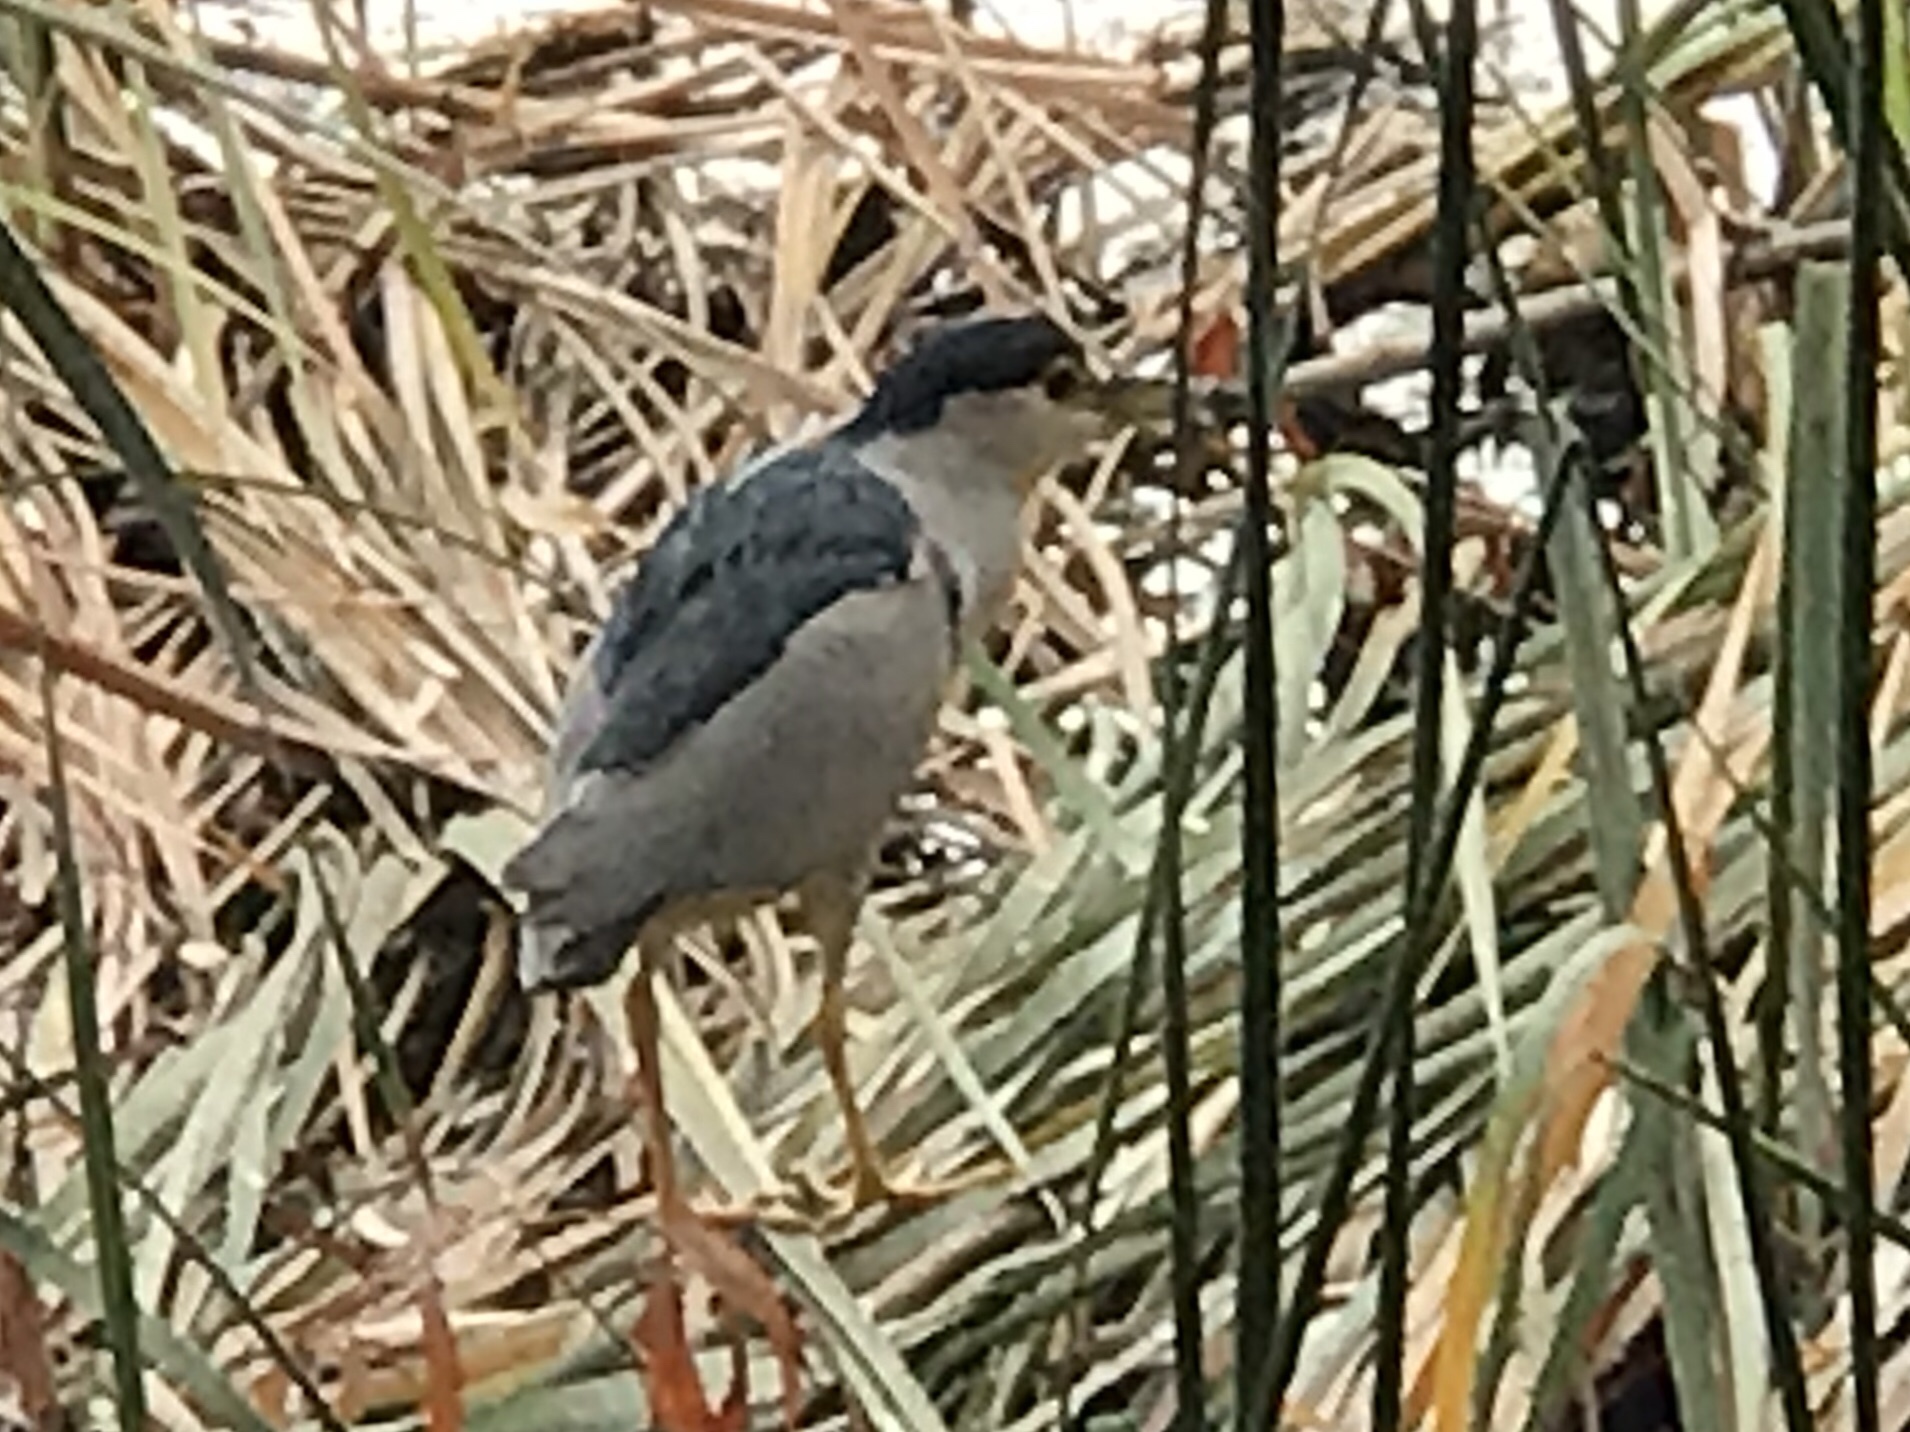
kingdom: Animalia
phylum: Chordata
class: Aves
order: Pelecaniformes
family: Ardeidae
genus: Nycticorax
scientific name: Nycticorax nycticorax
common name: Black-crowned night heron
